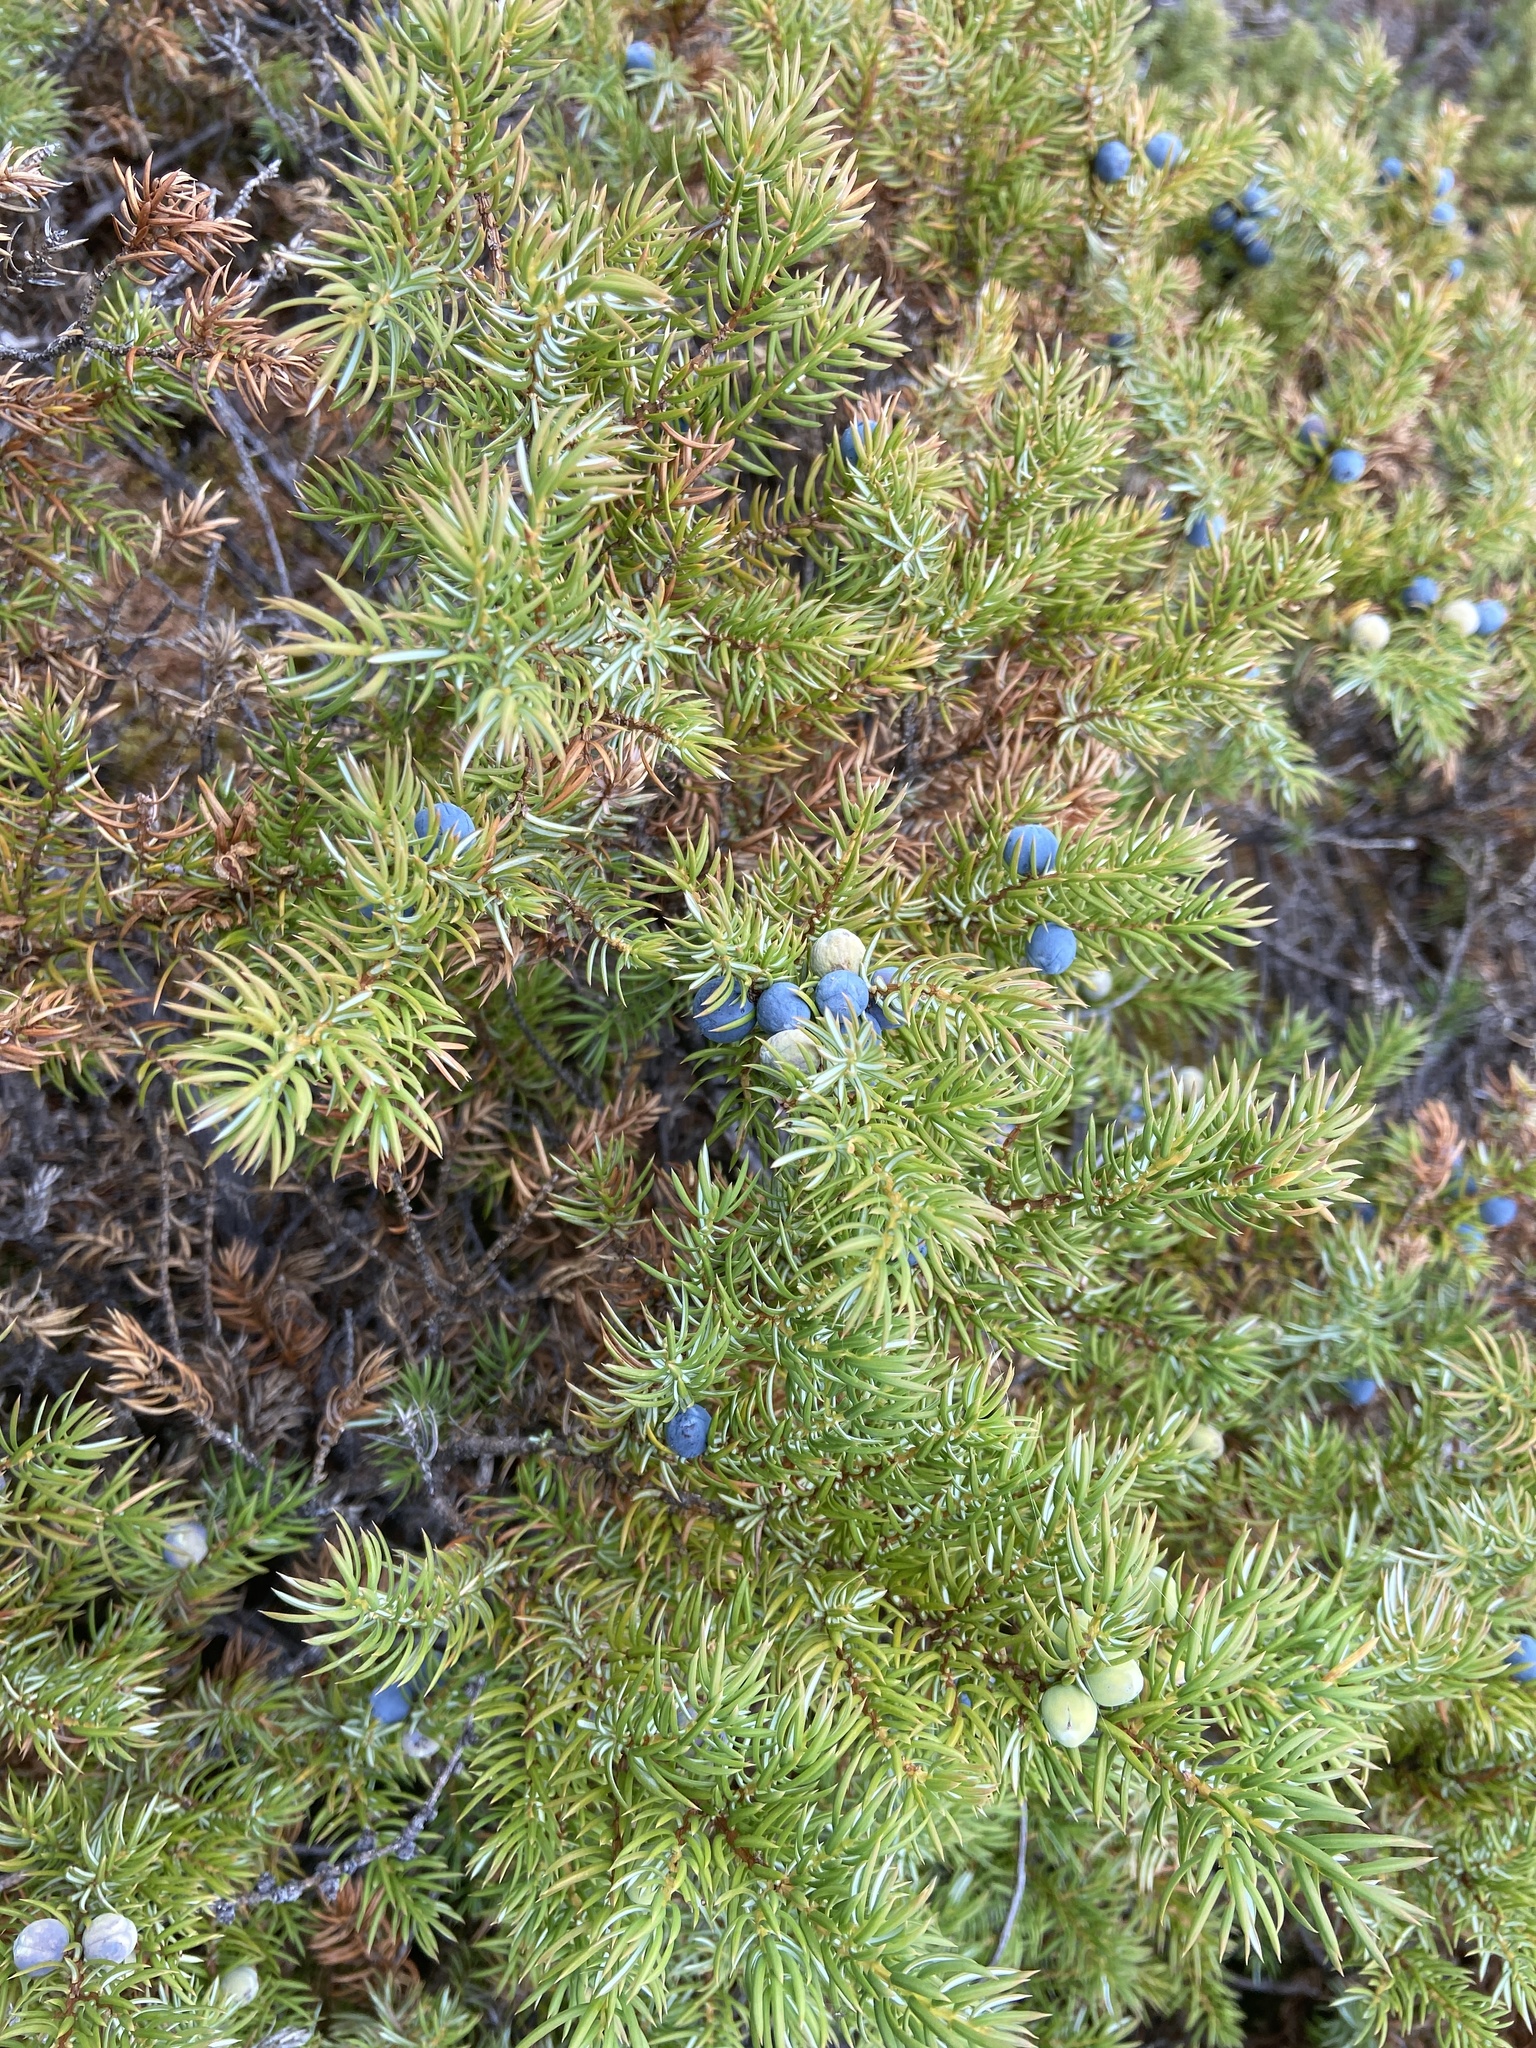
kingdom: Plantae
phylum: Tracheophyta
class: Pinopsida
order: Pinales
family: Cupressaceae
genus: Juniperus
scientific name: Juniperus communis
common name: Common juniper
